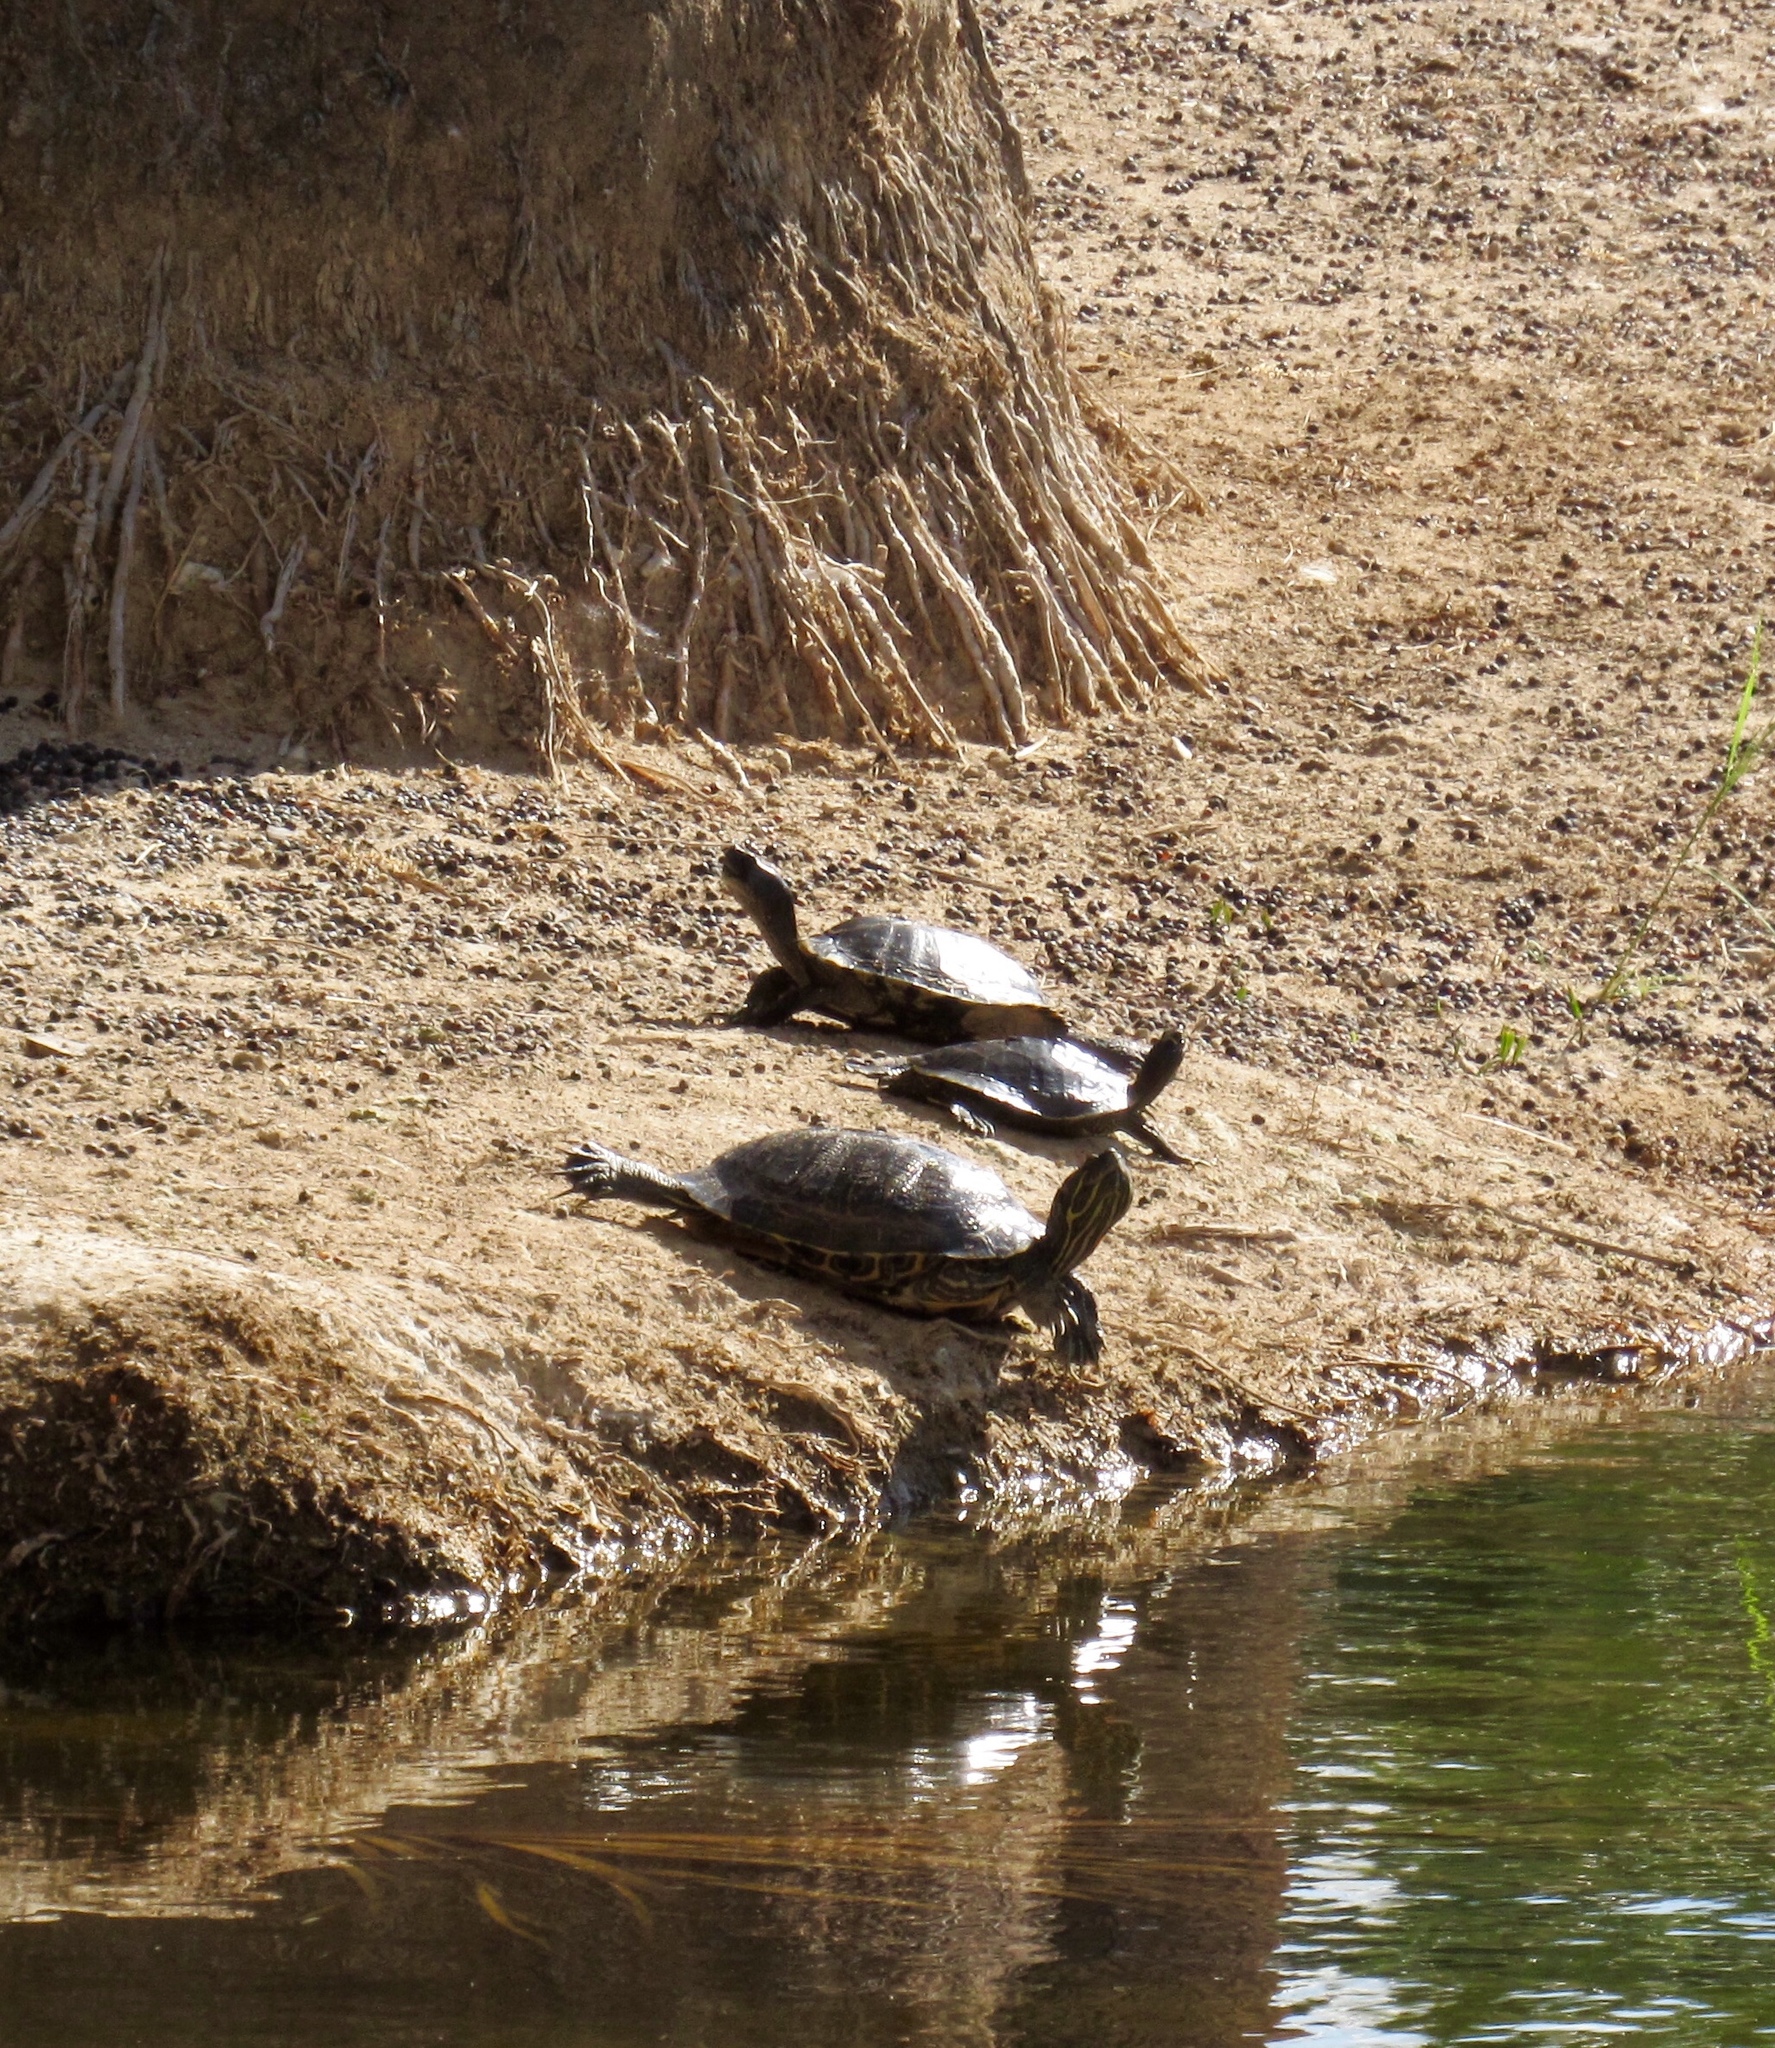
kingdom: Animalia
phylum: Chordata
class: Testudines
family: Emydidae
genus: Trachemys
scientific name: Trachemys scripta
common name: Slider
